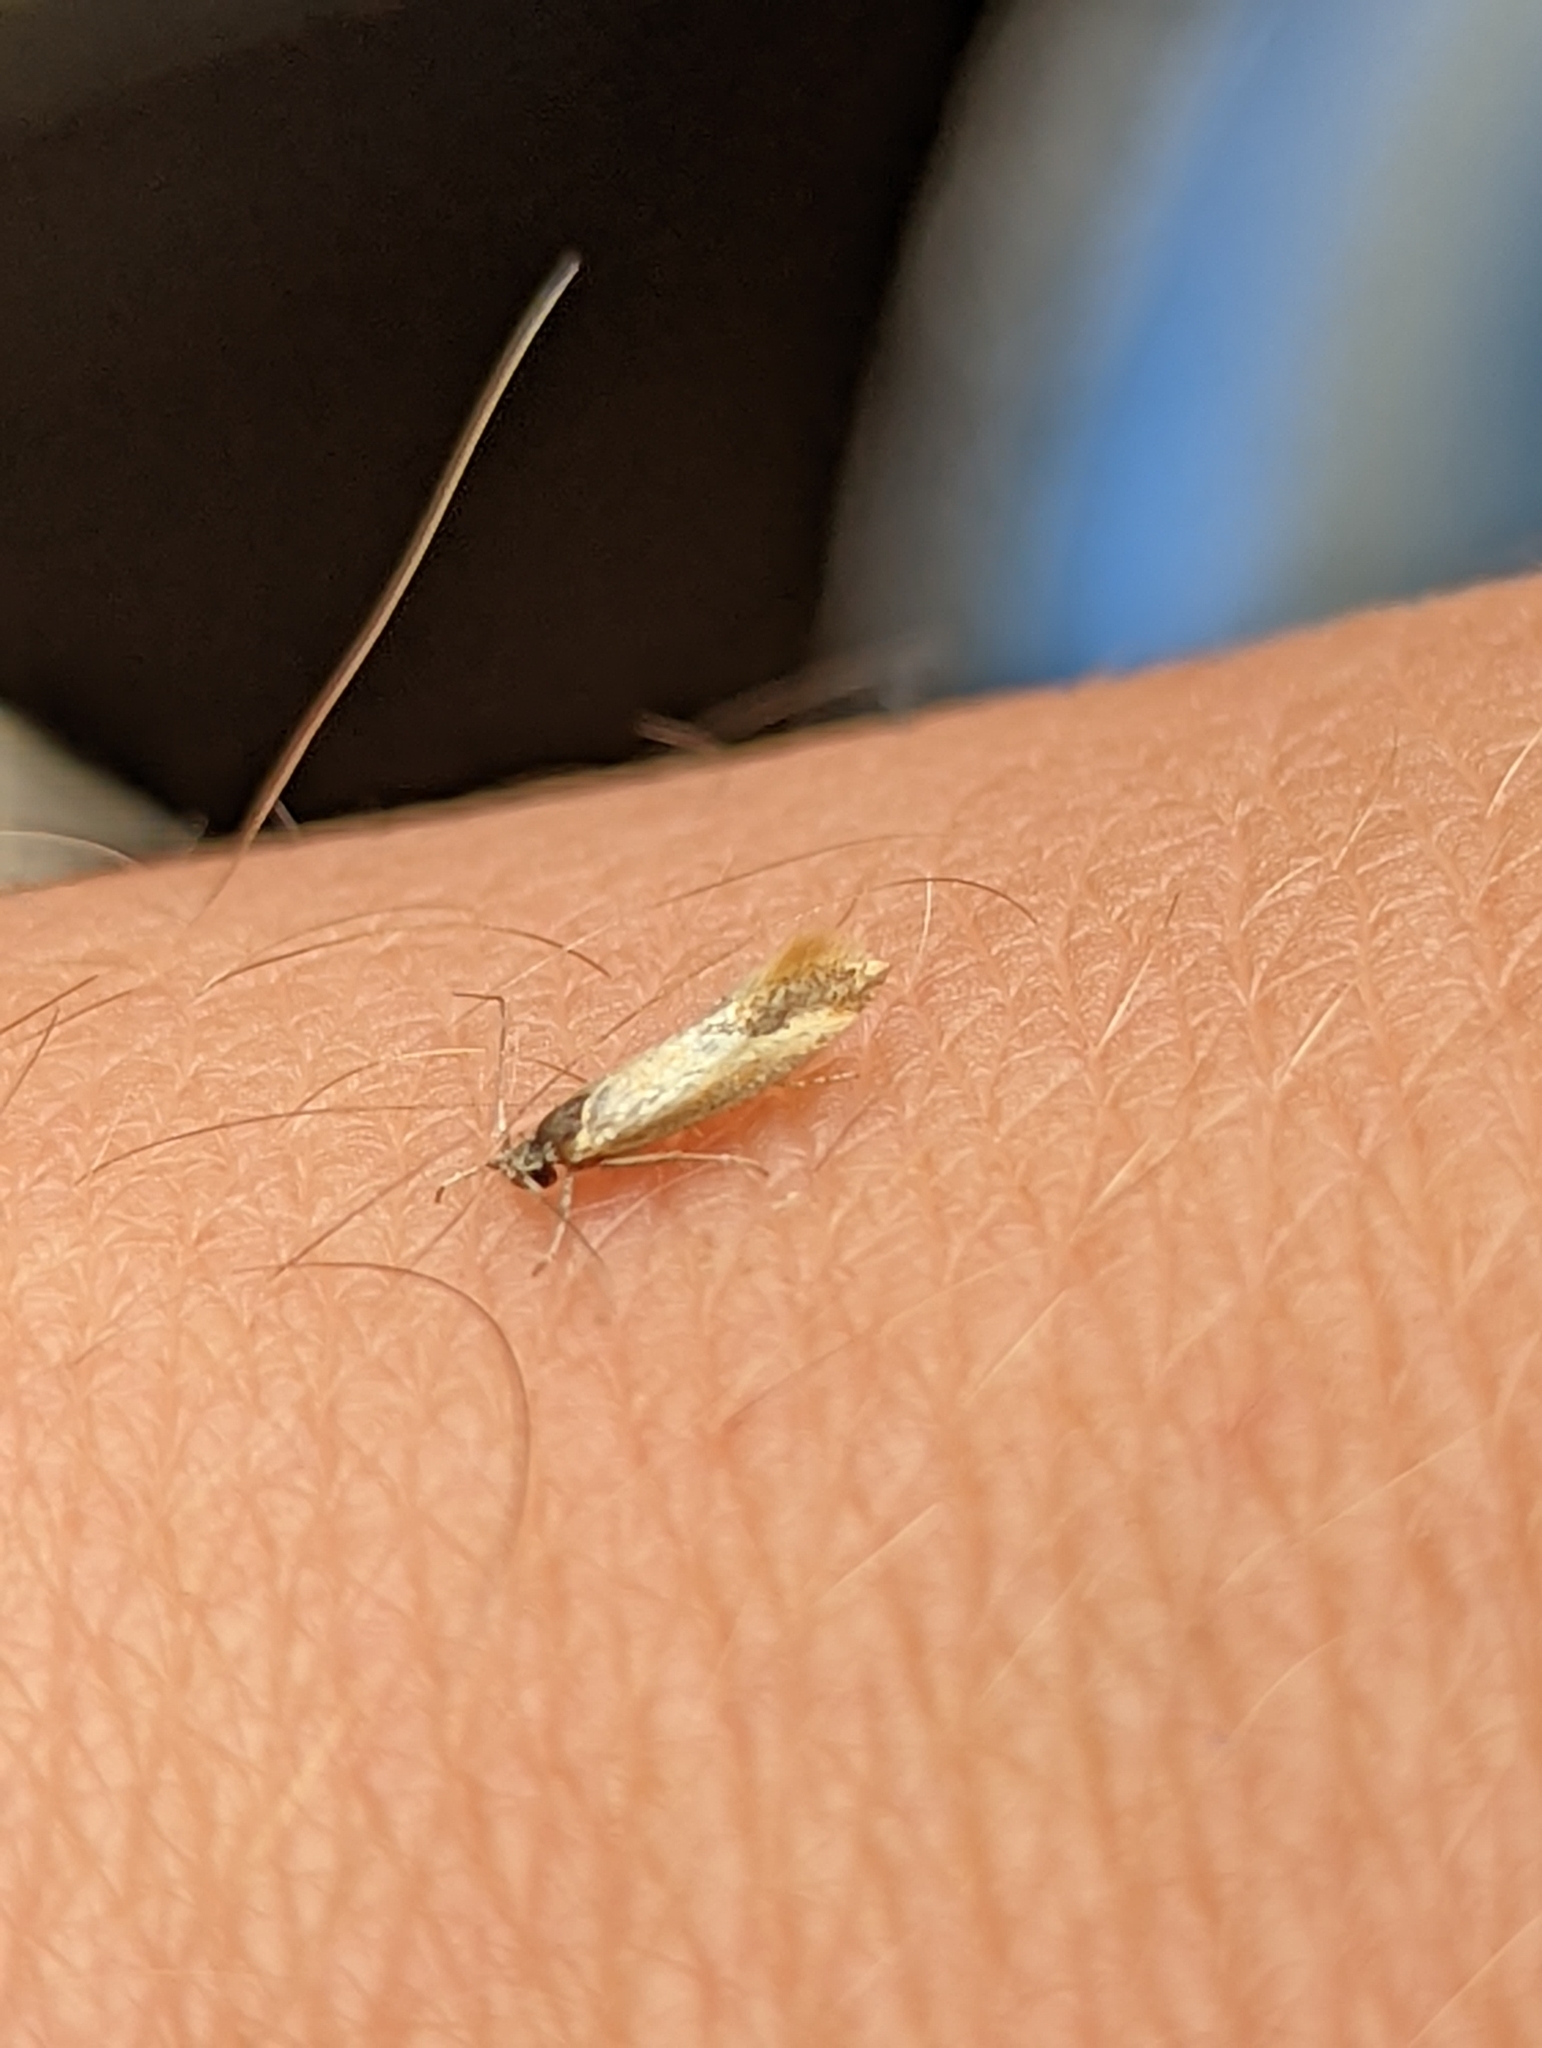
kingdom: Animalia
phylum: Arthropoda
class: Insecta
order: Lepidoptera
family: Oecophoridae
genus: Batia
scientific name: Batia lunaris
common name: Moth
